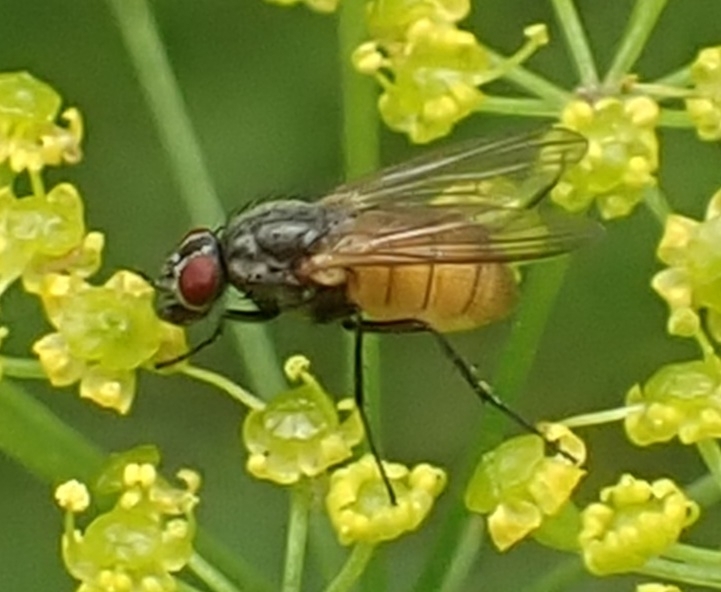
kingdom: Animalia
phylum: Arthropoda
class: Insecta
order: Diptera
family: Muscidae
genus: Thricops
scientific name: Thricops semicinereus
